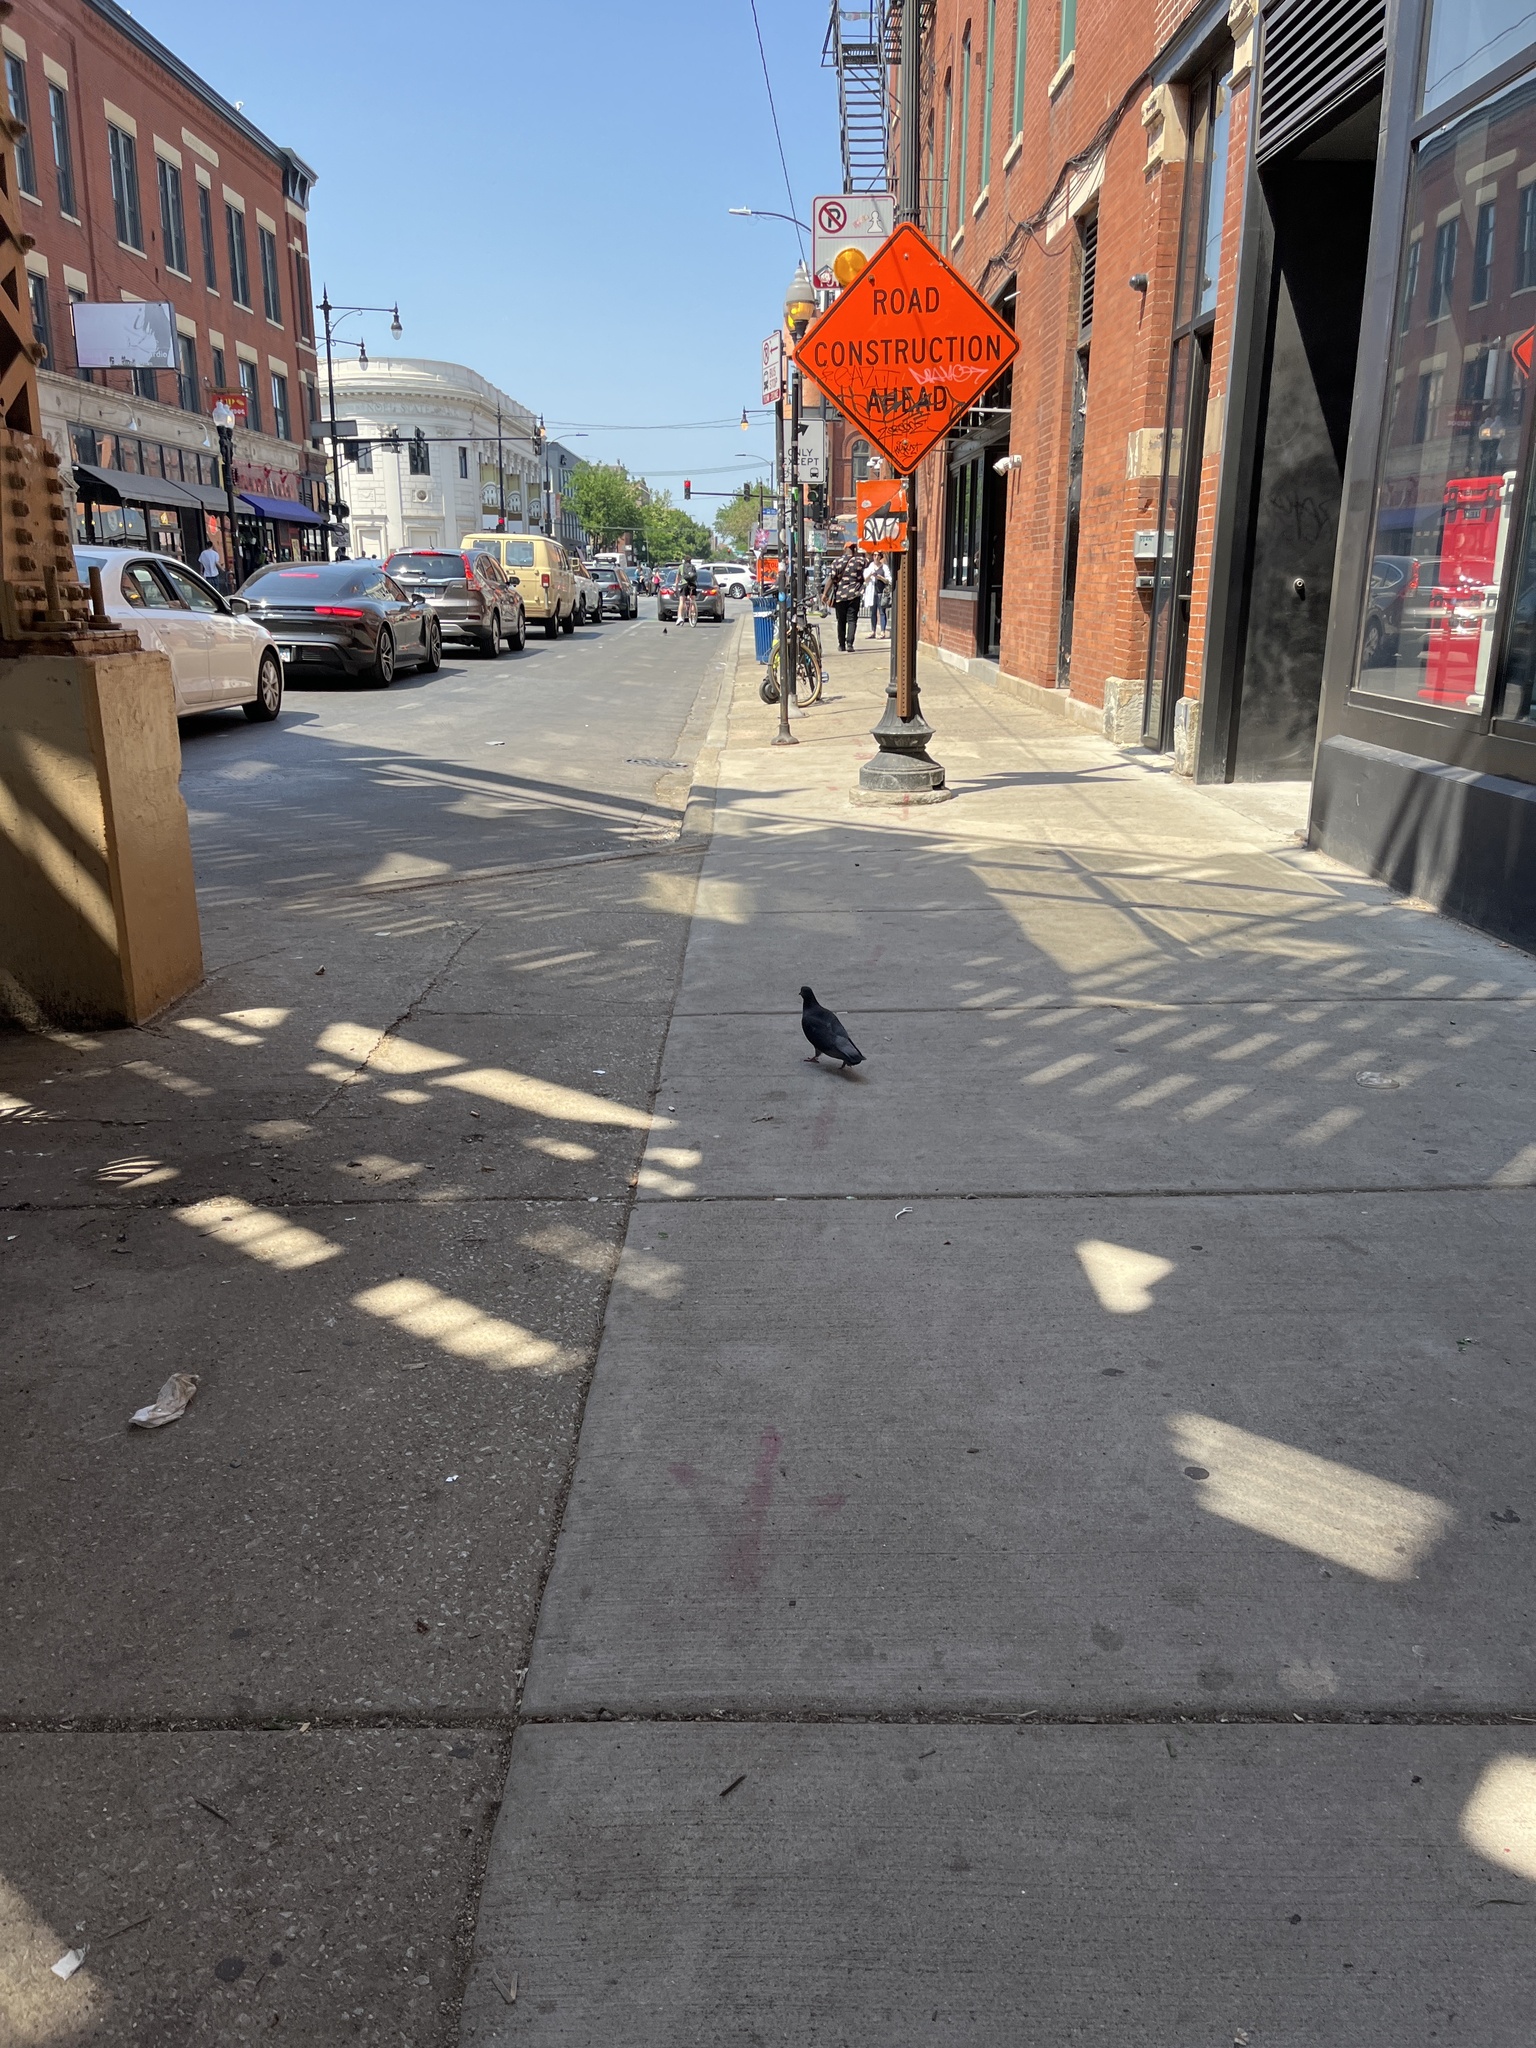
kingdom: Animalia
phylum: Chordata
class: Aves
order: Columbiformes
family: Columbidae
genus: Columba
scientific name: Columba livia
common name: Rock pigeon
